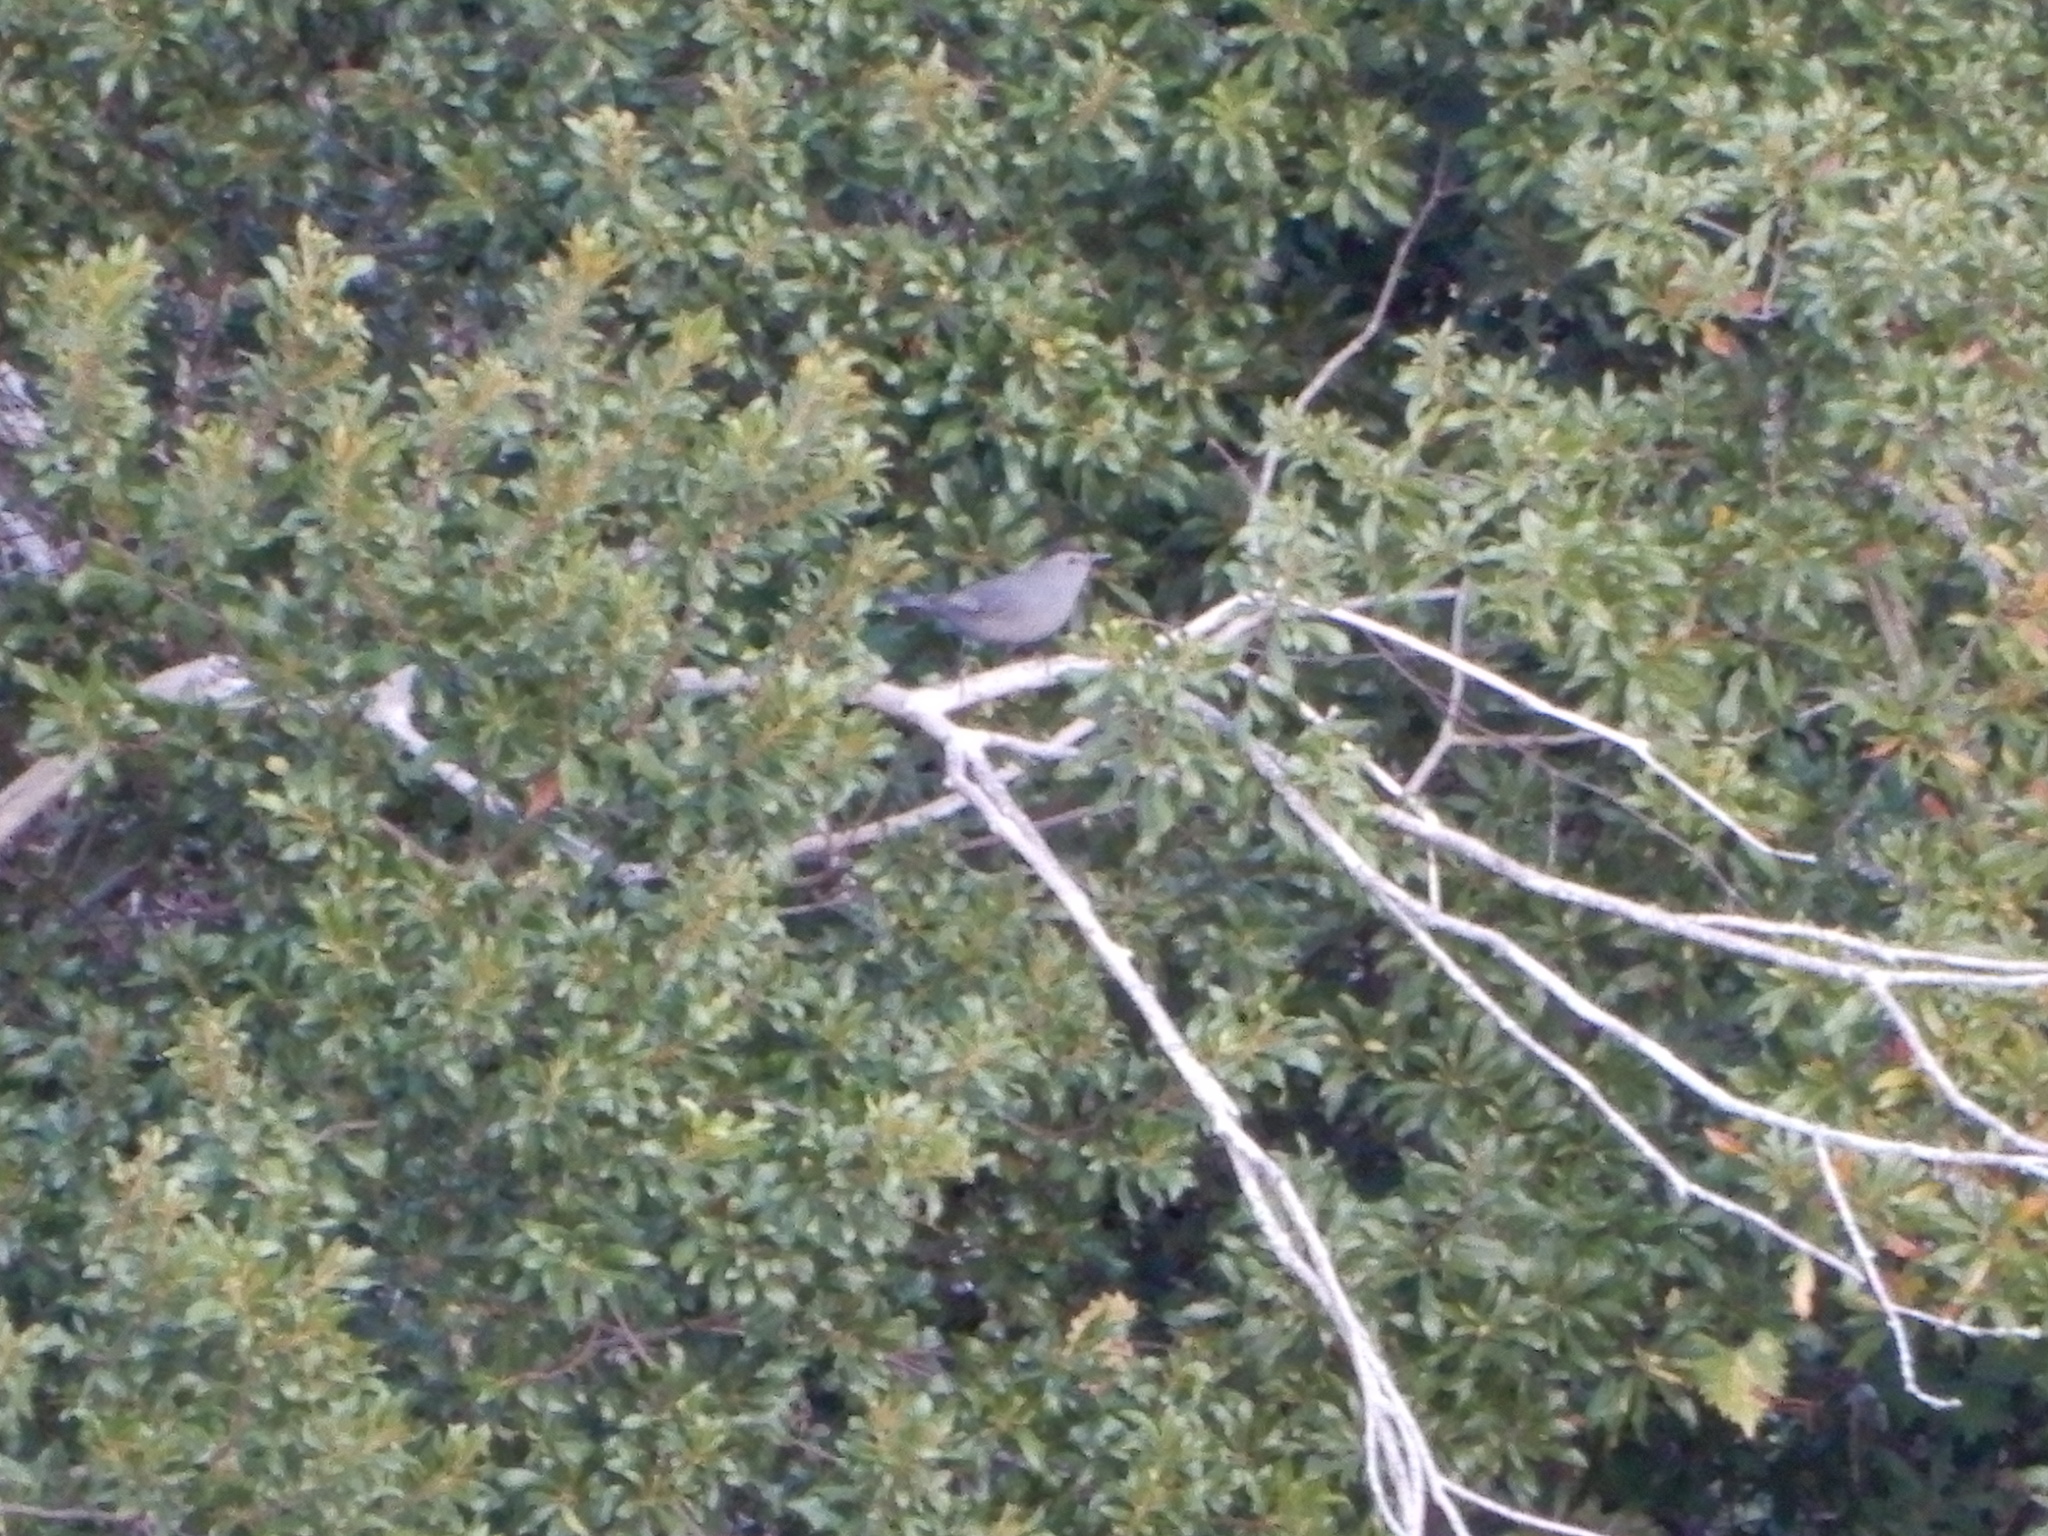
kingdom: Animalia
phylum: Chordata
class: Aves
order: Passeriformes
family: Mimidae
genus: Dumetella
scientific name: Dumetella carolinensis
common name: Gray catbird
